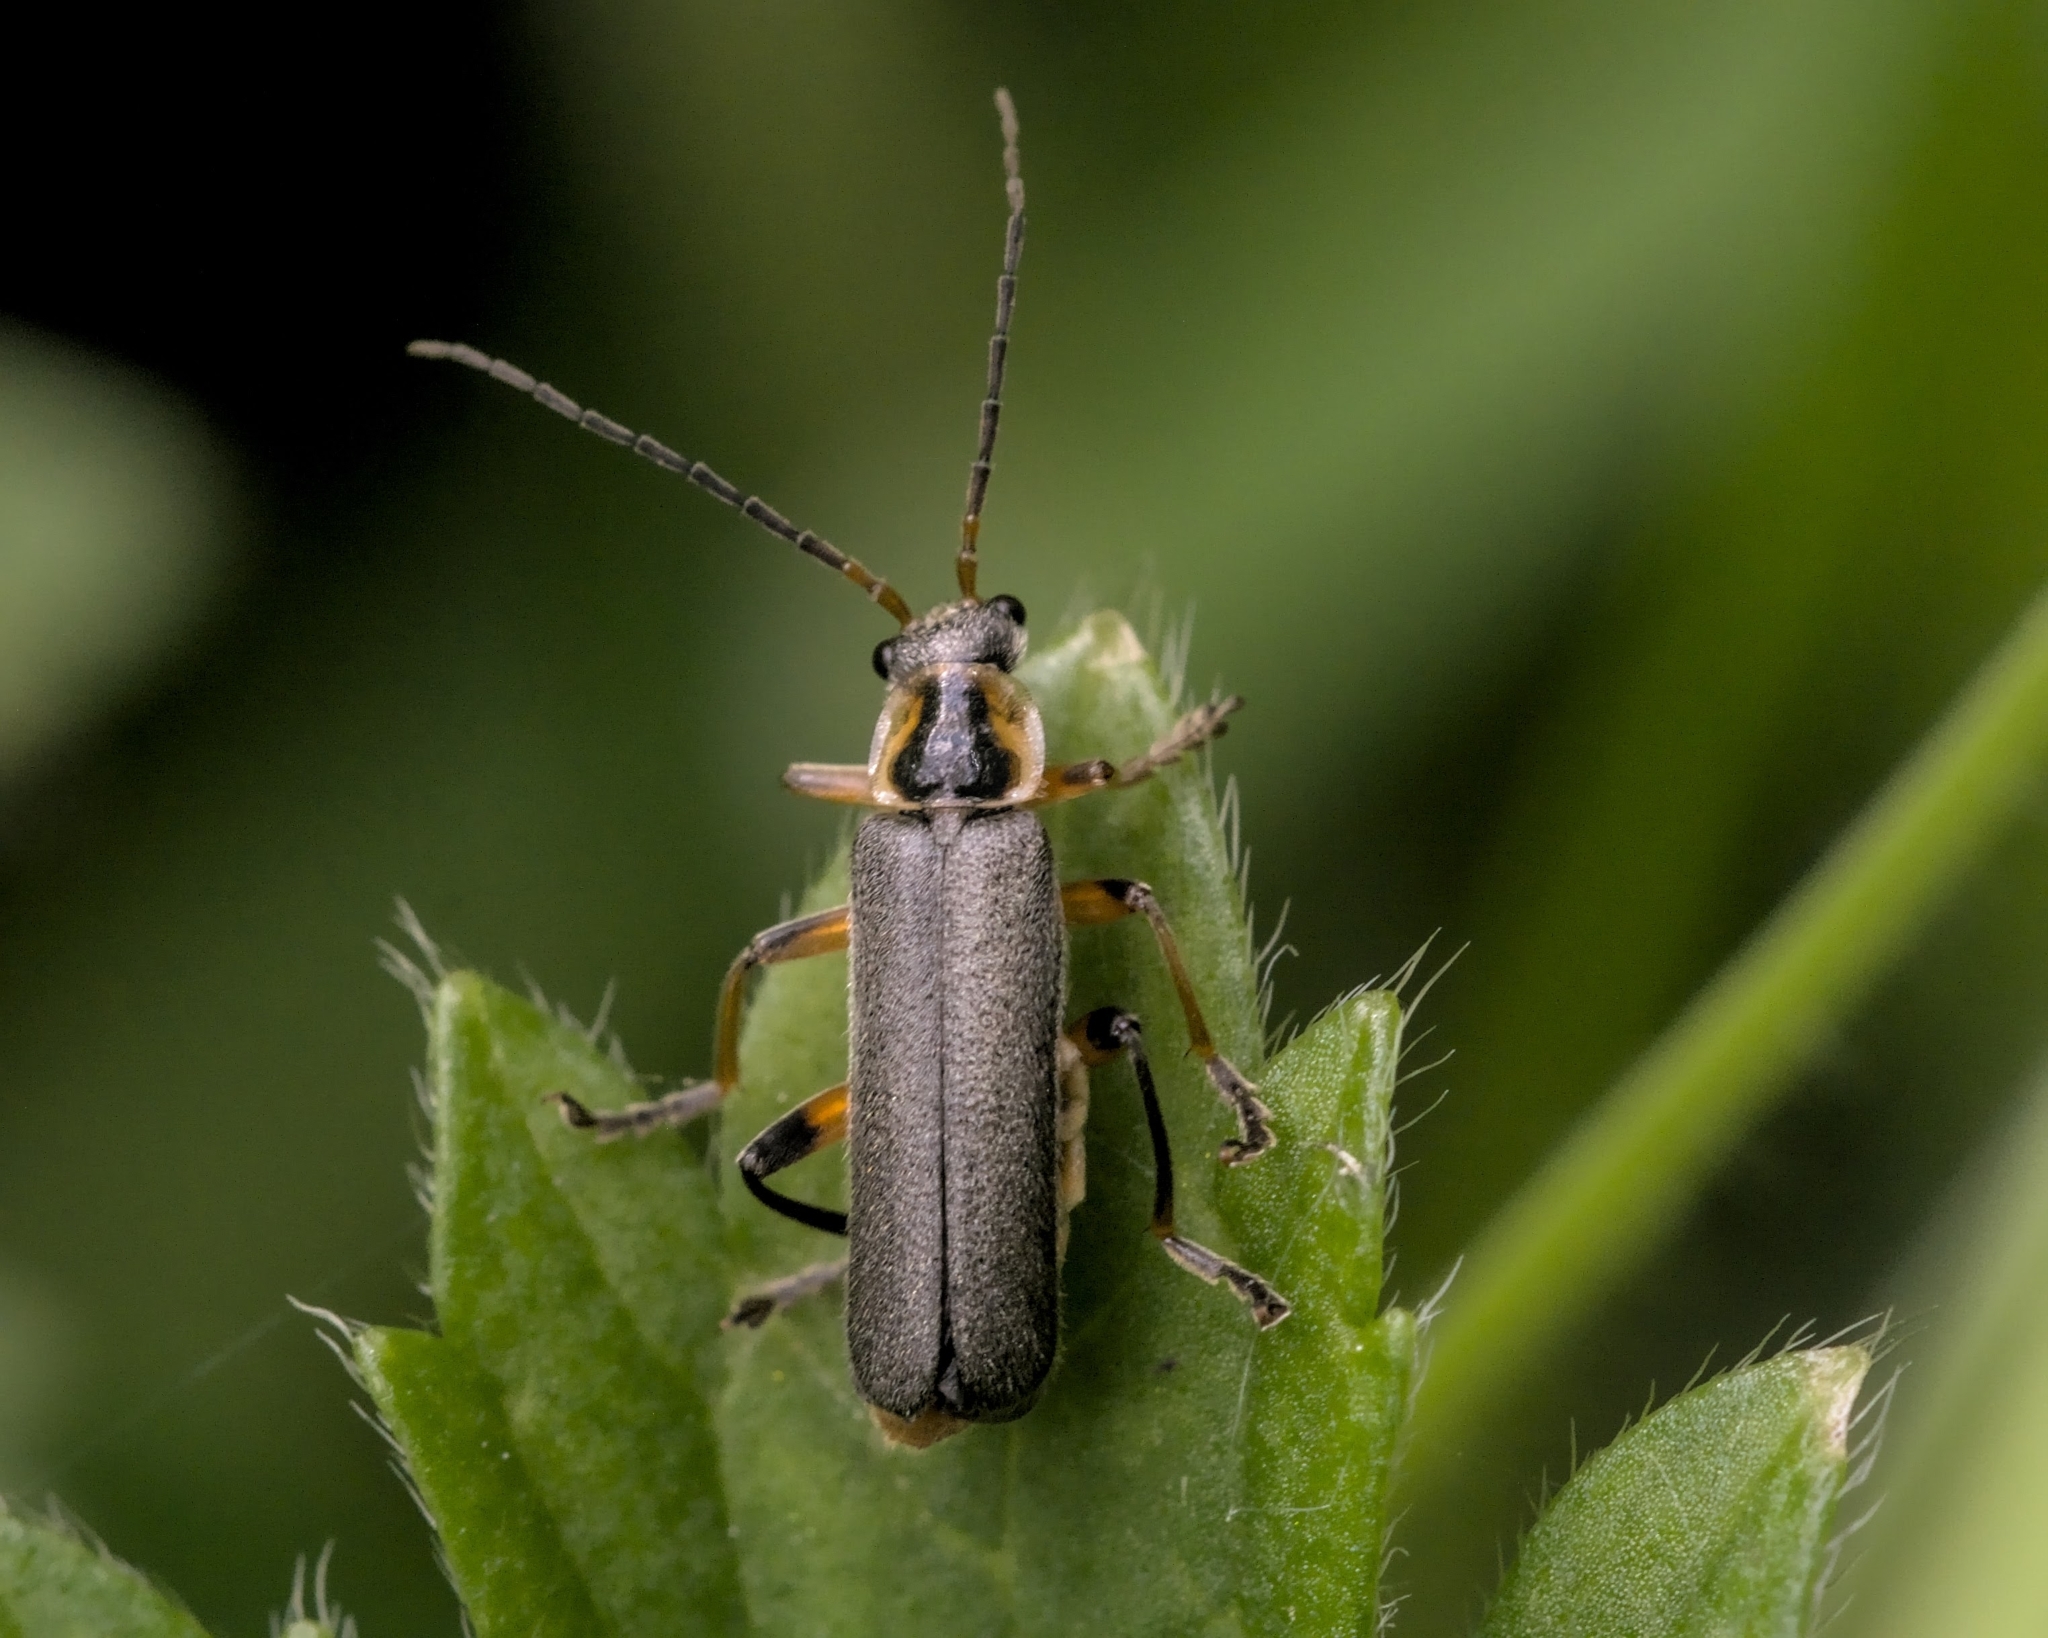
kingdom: Animalia
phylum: Arthropoda
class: Insecta
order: Coleoptera
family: Cantharidae
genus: Cantharis
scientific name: Cantharis nigricans
